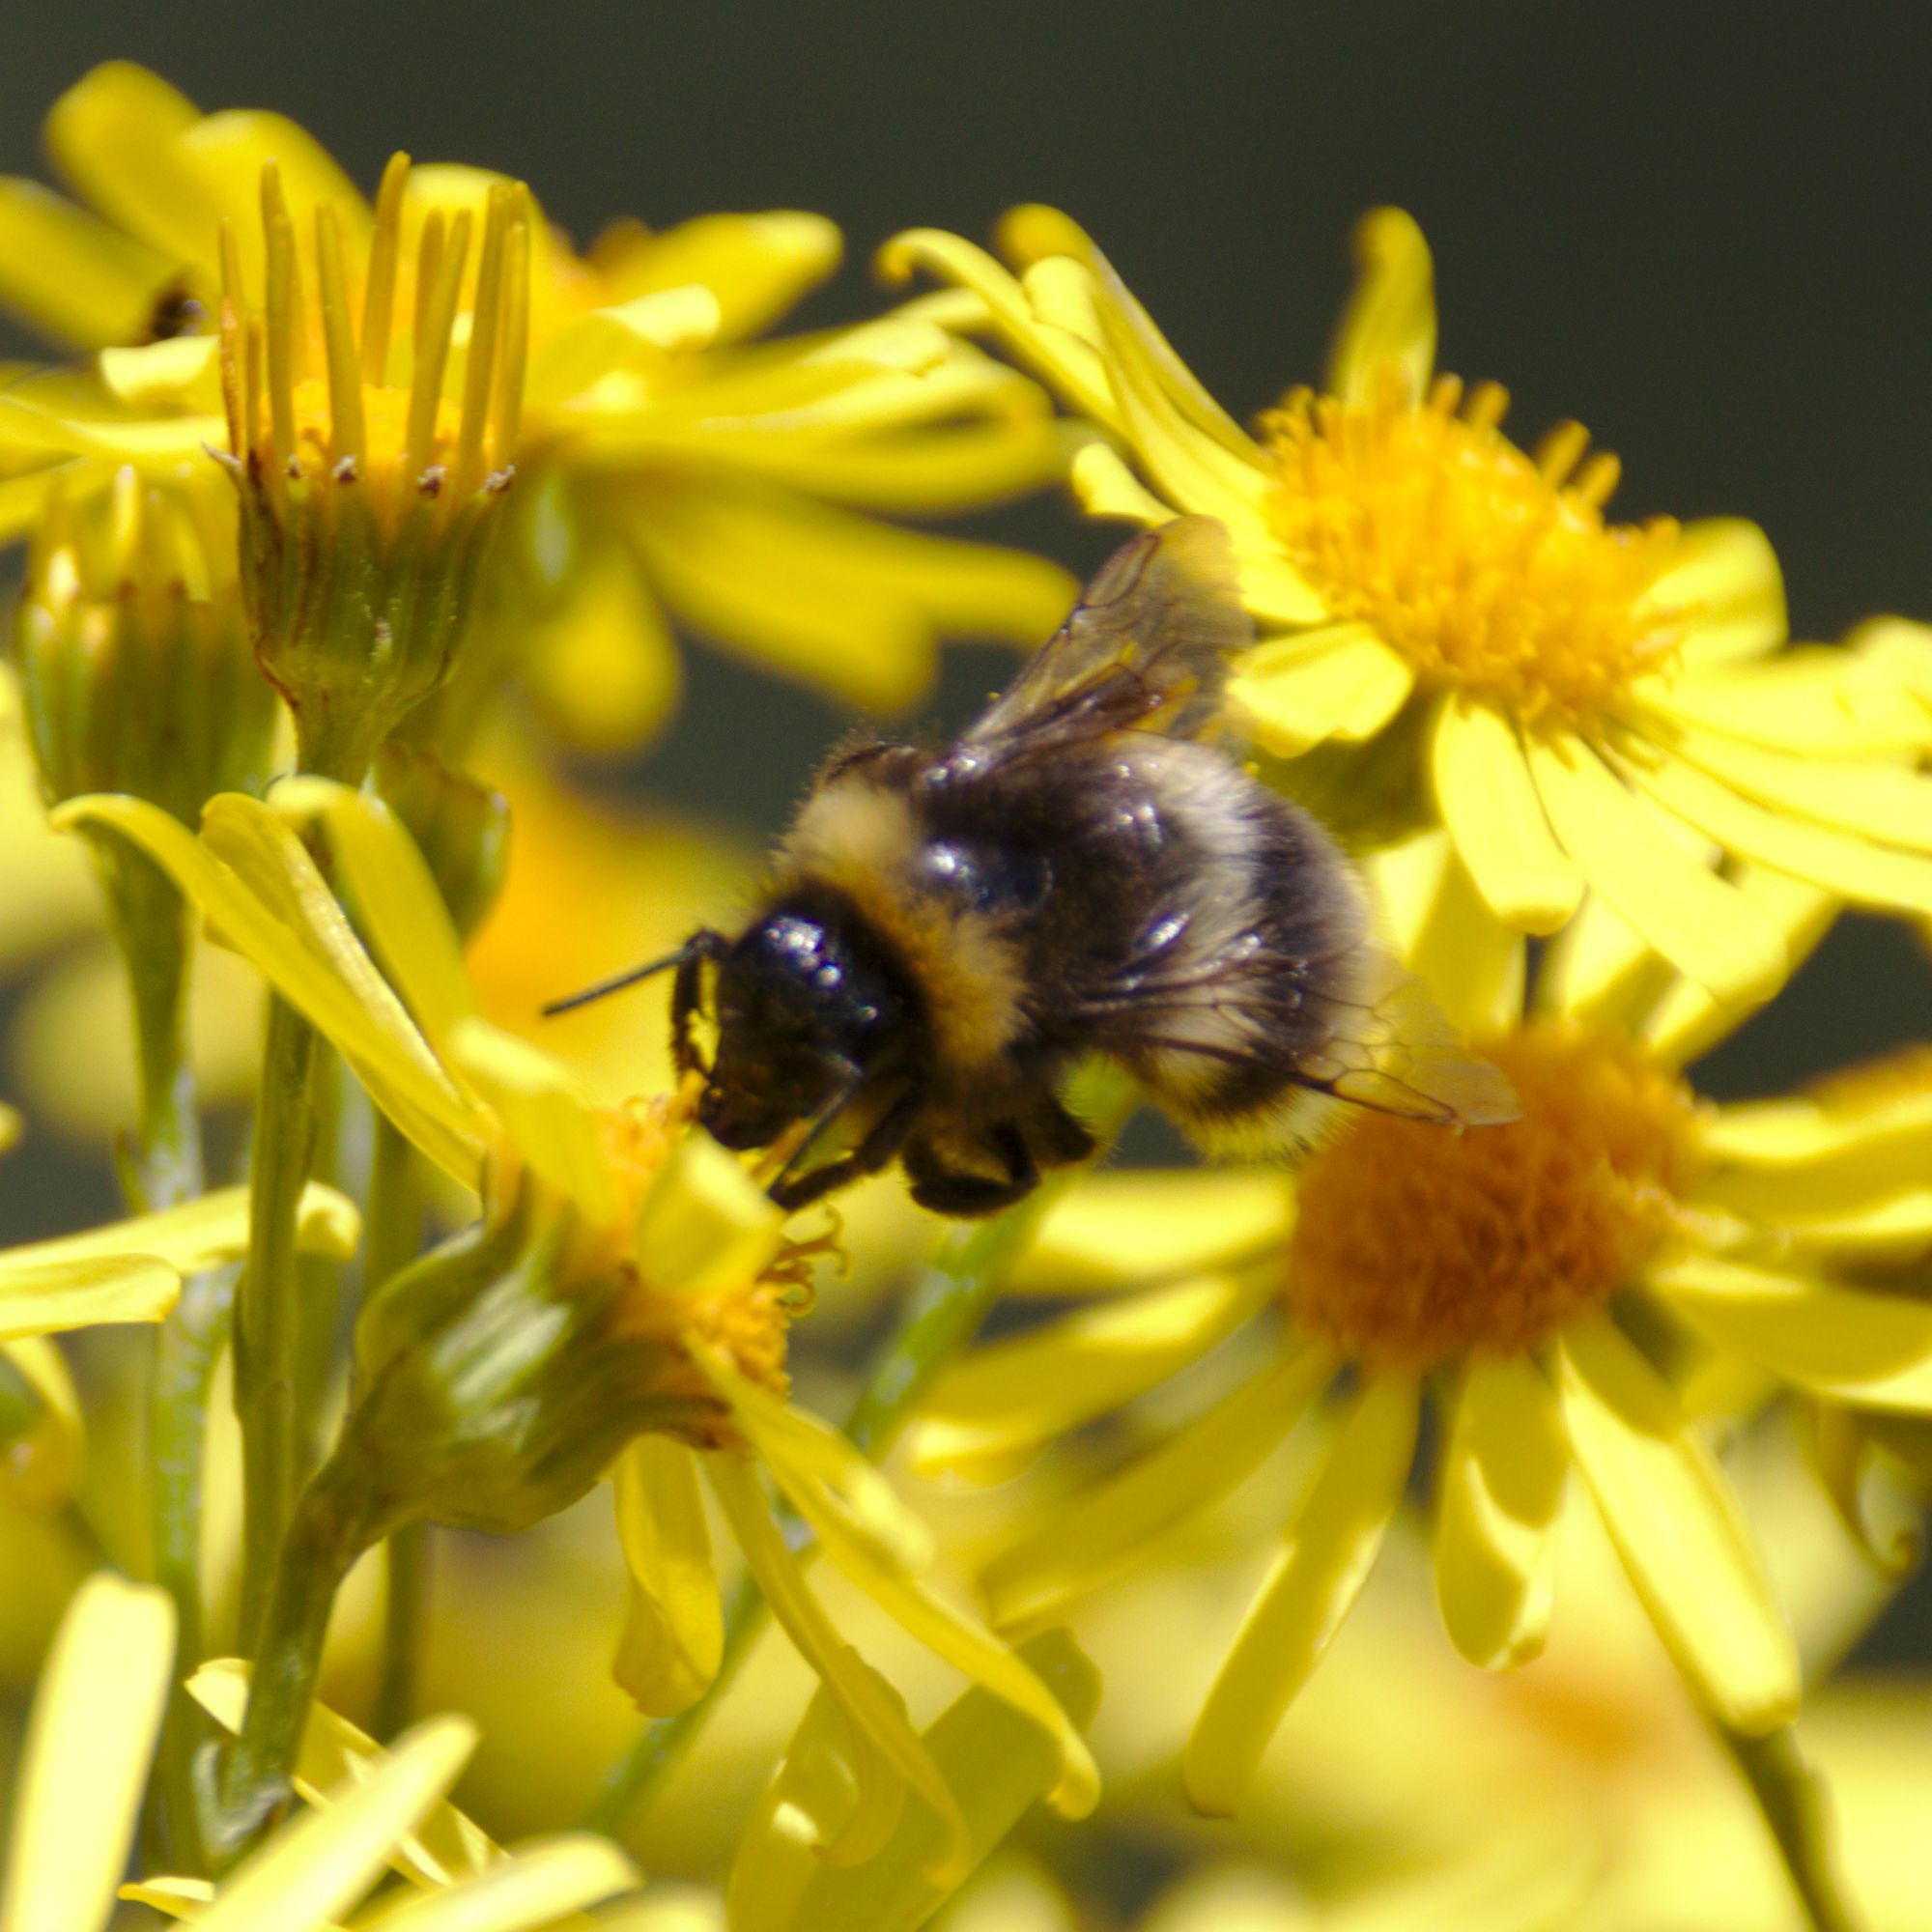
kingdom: Animalia
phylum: Arthropoda
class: Insecta
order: Hymenoptera
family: Apidae
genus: Bombus
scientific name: Bombus
